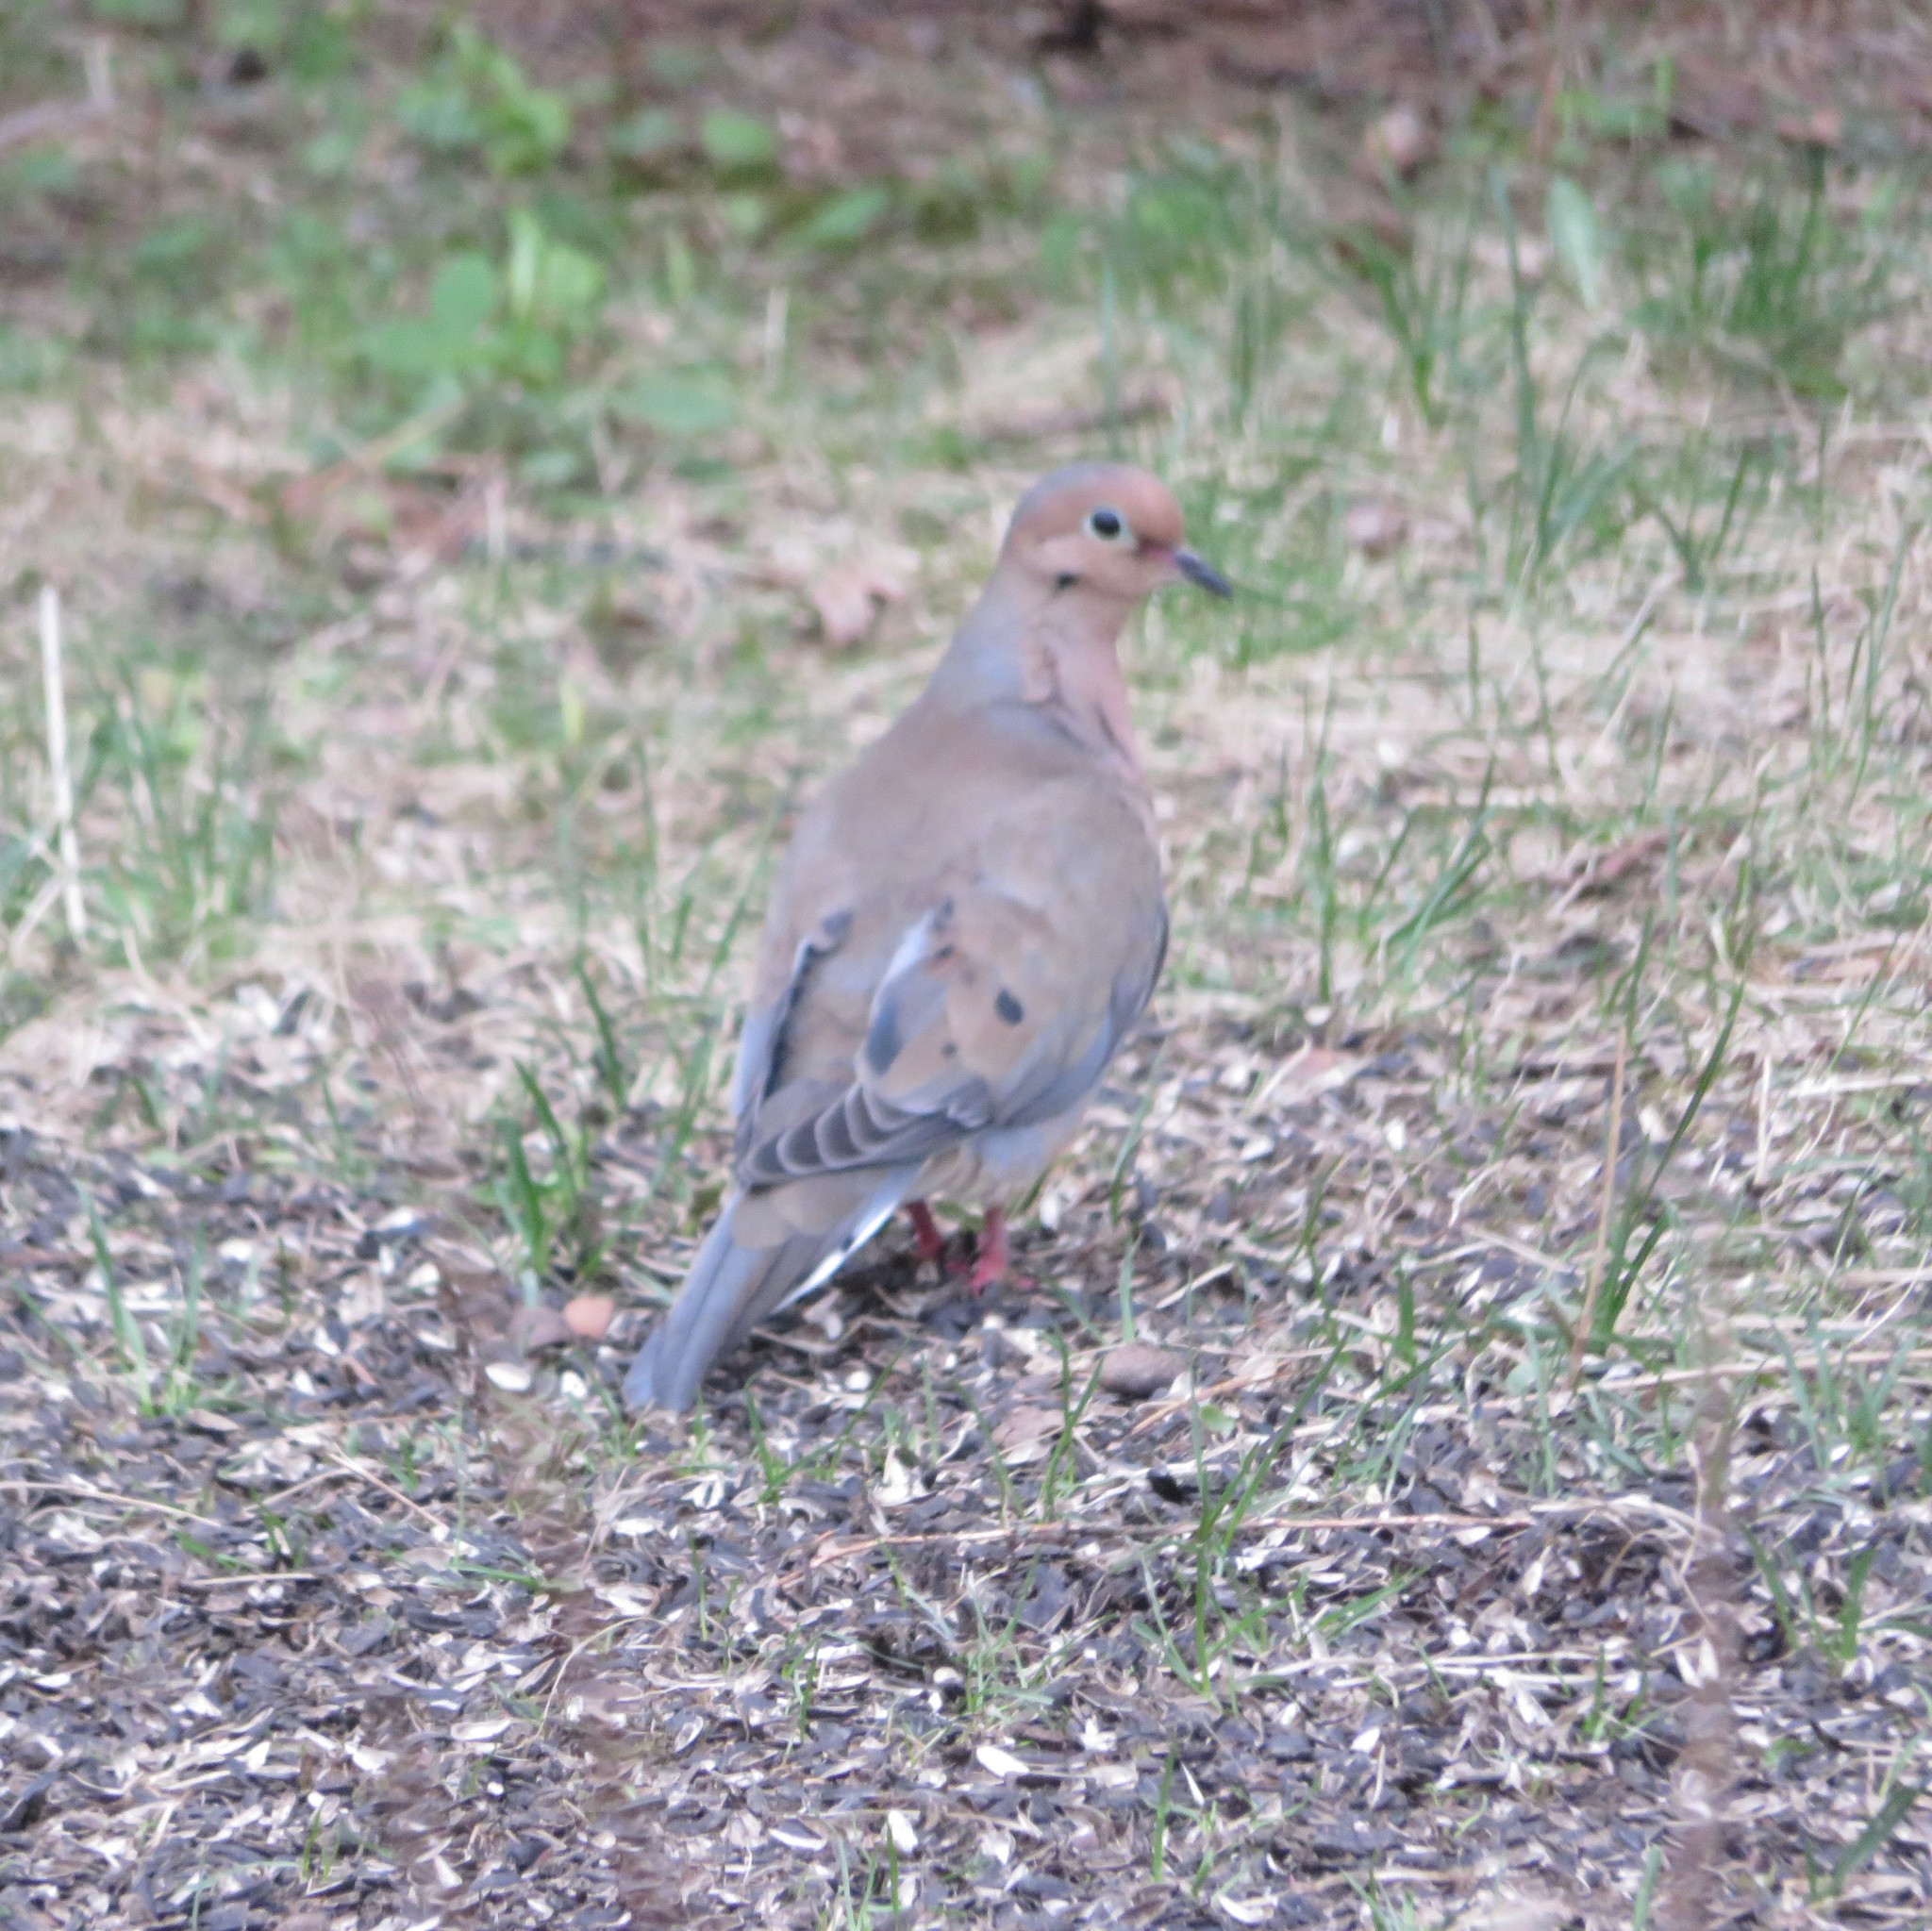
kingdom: Animalia
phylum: Chordata
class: Aves
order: Columbiformes
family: Columbidae
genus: Zenaida
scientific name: Zenaida macroura
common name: Mourning dove
